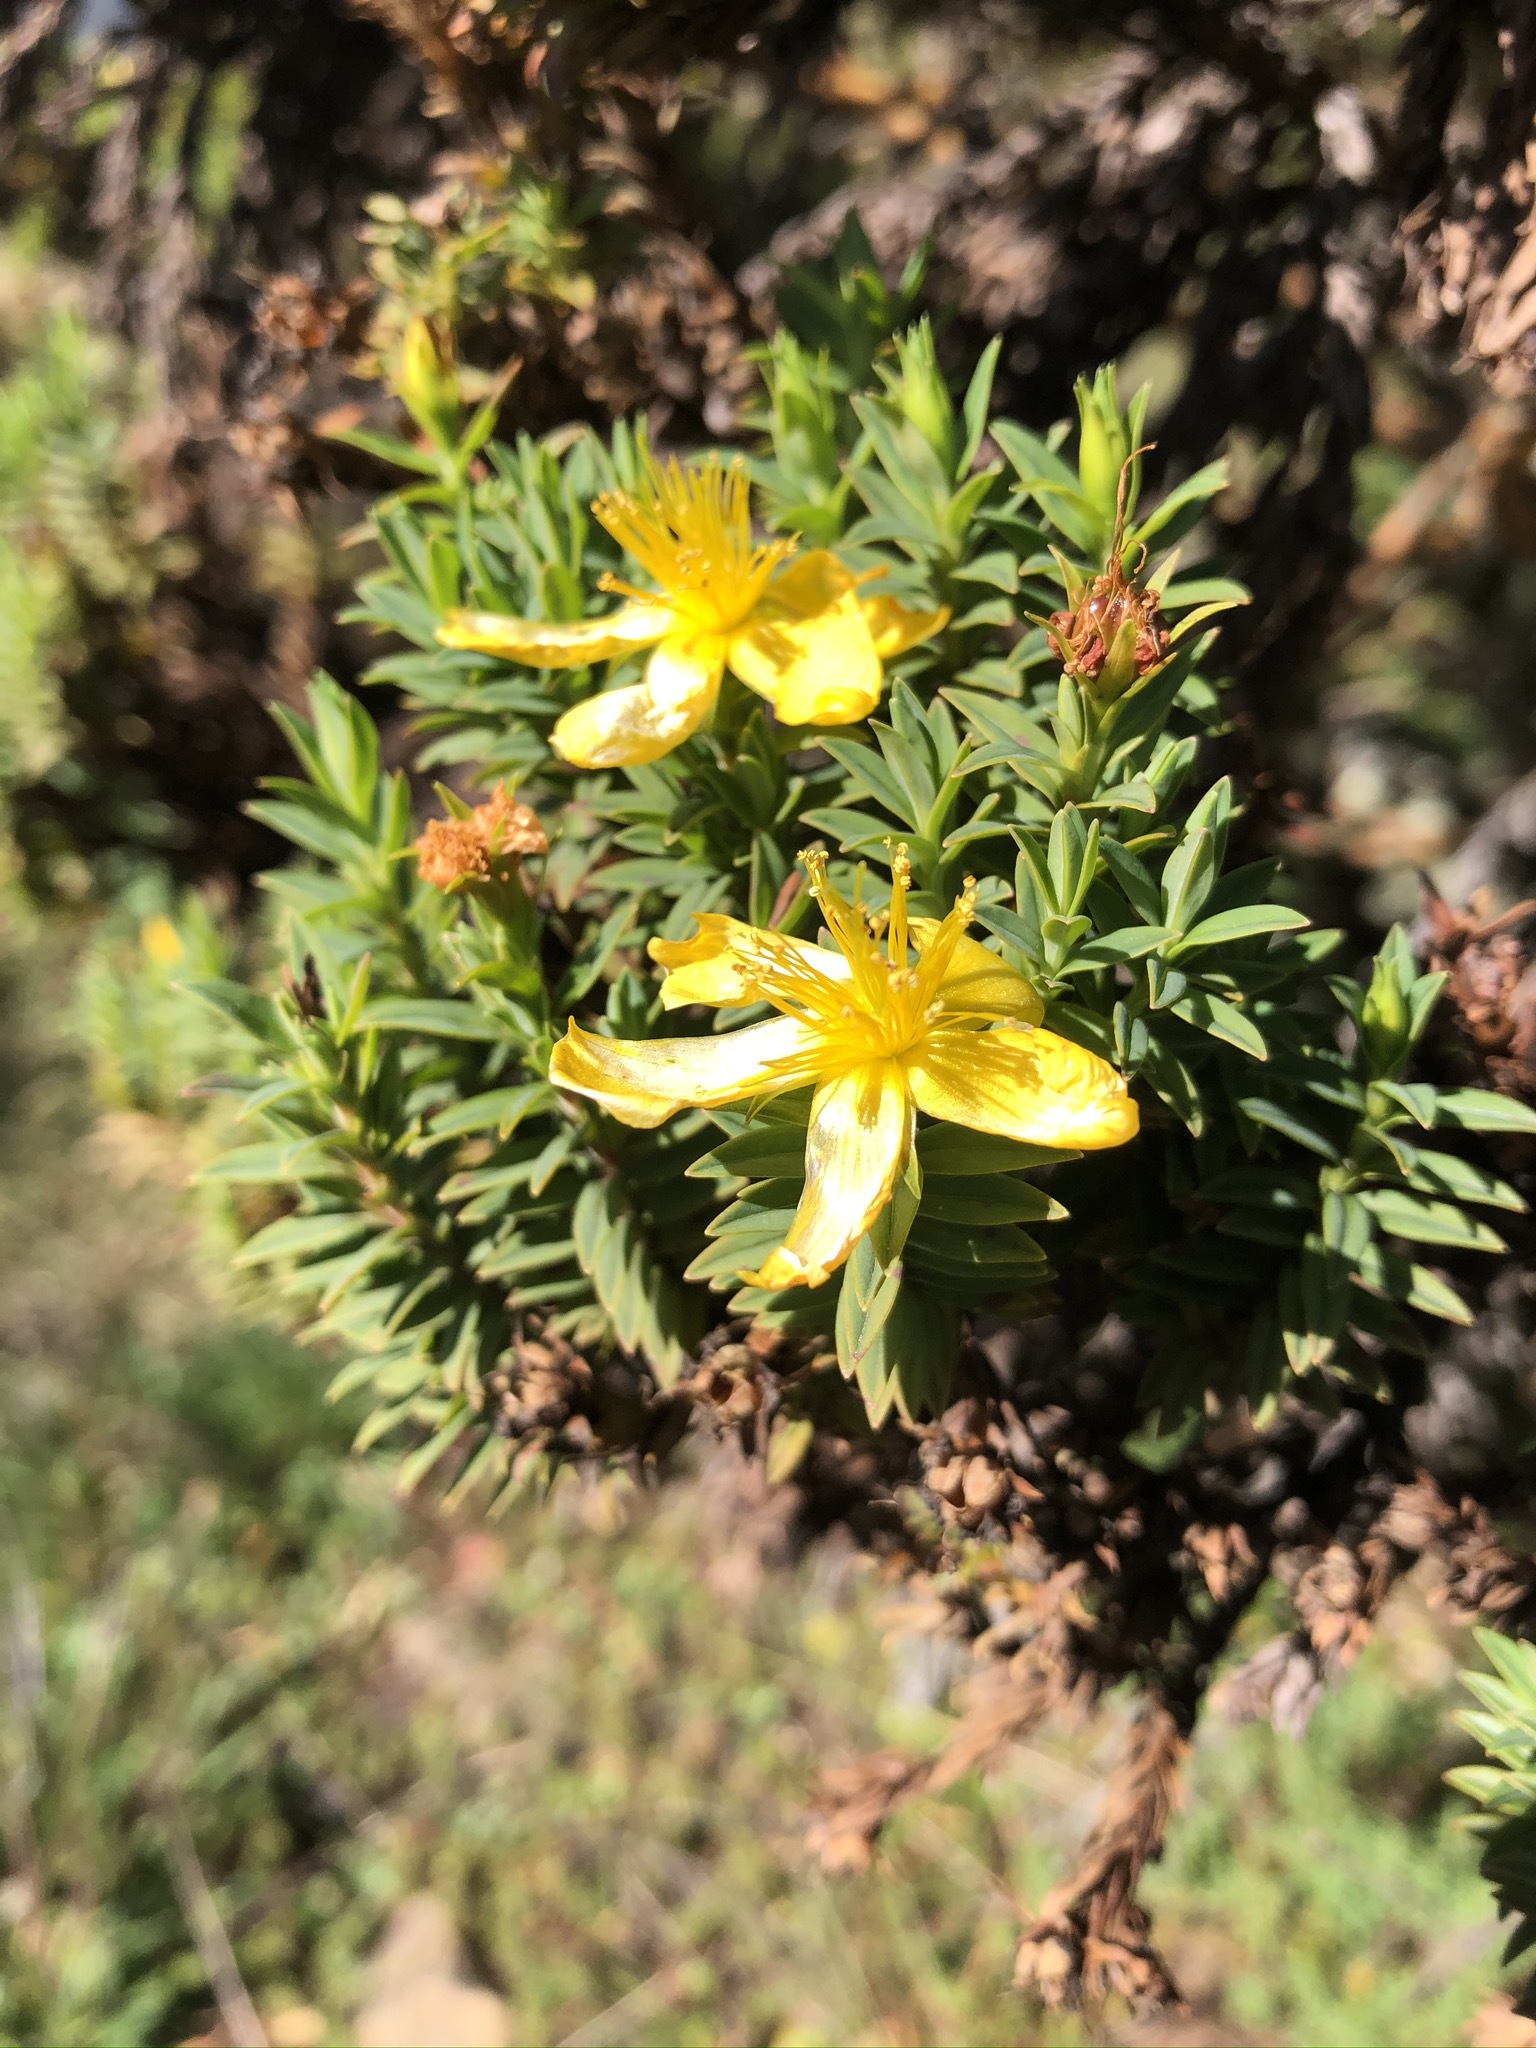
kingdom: Plantae
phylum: Tracheophyta
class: Magnoliopsida
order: Malpighiales
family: Hypericaceae
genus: Hypericum
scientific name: Hypericum irazuense
